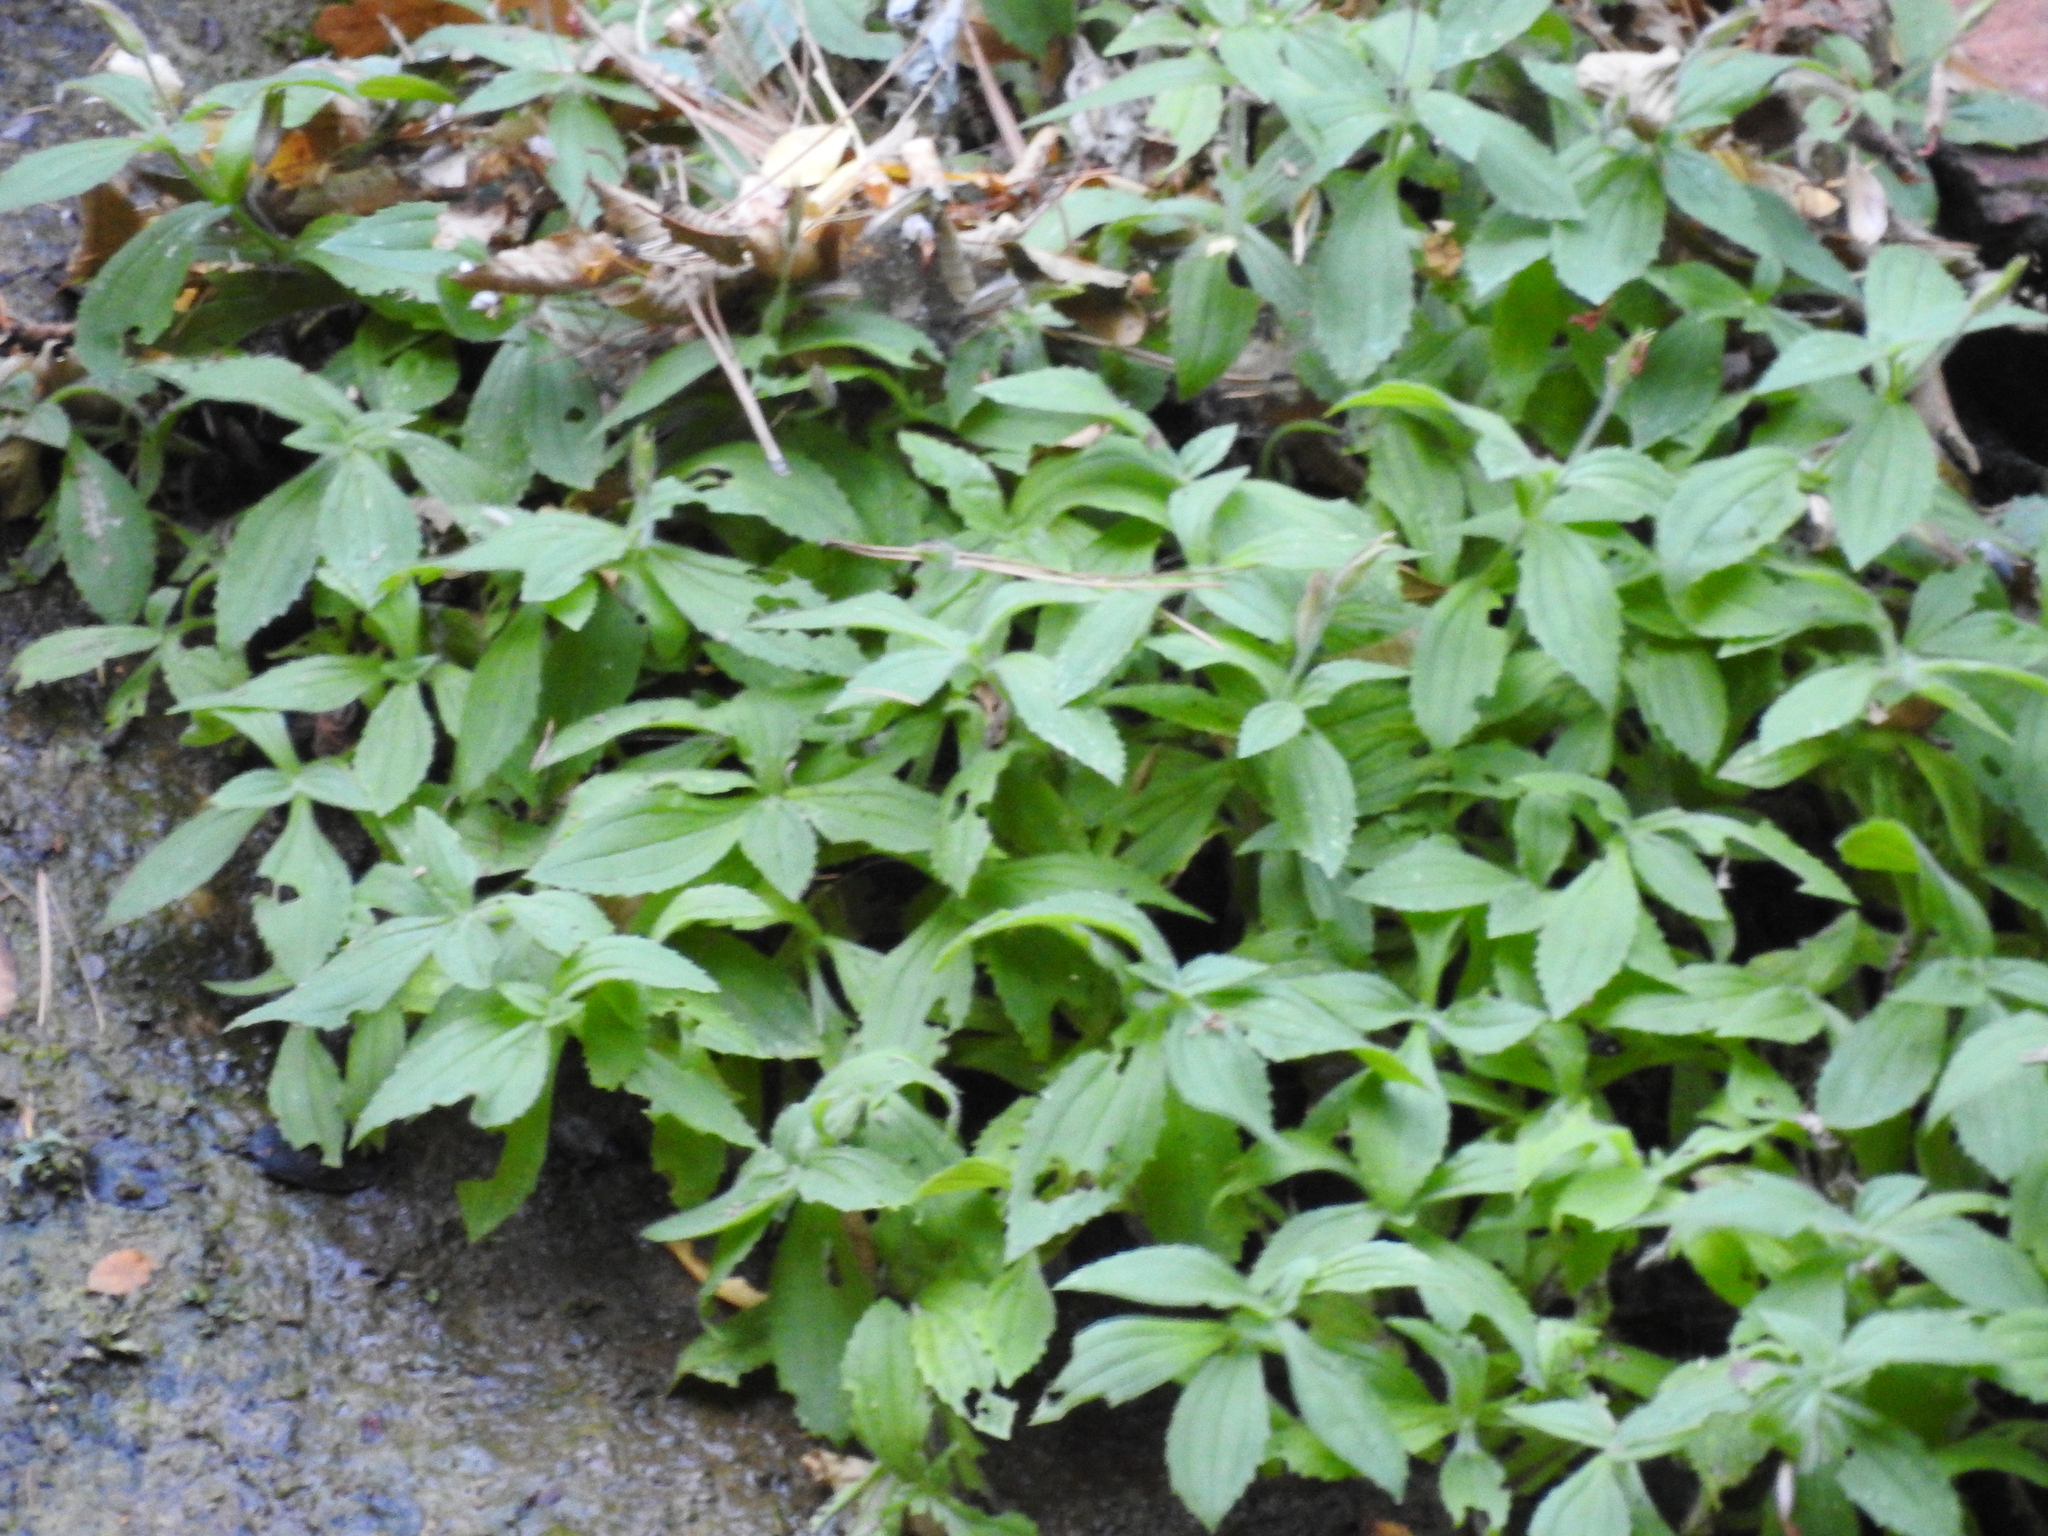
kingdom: Plantae
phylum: Tracheophyta
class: Magnoliopsida
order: Lamiales
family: Phrymaceae
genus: Erythranthe
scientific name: Erythranthe verbenacea
